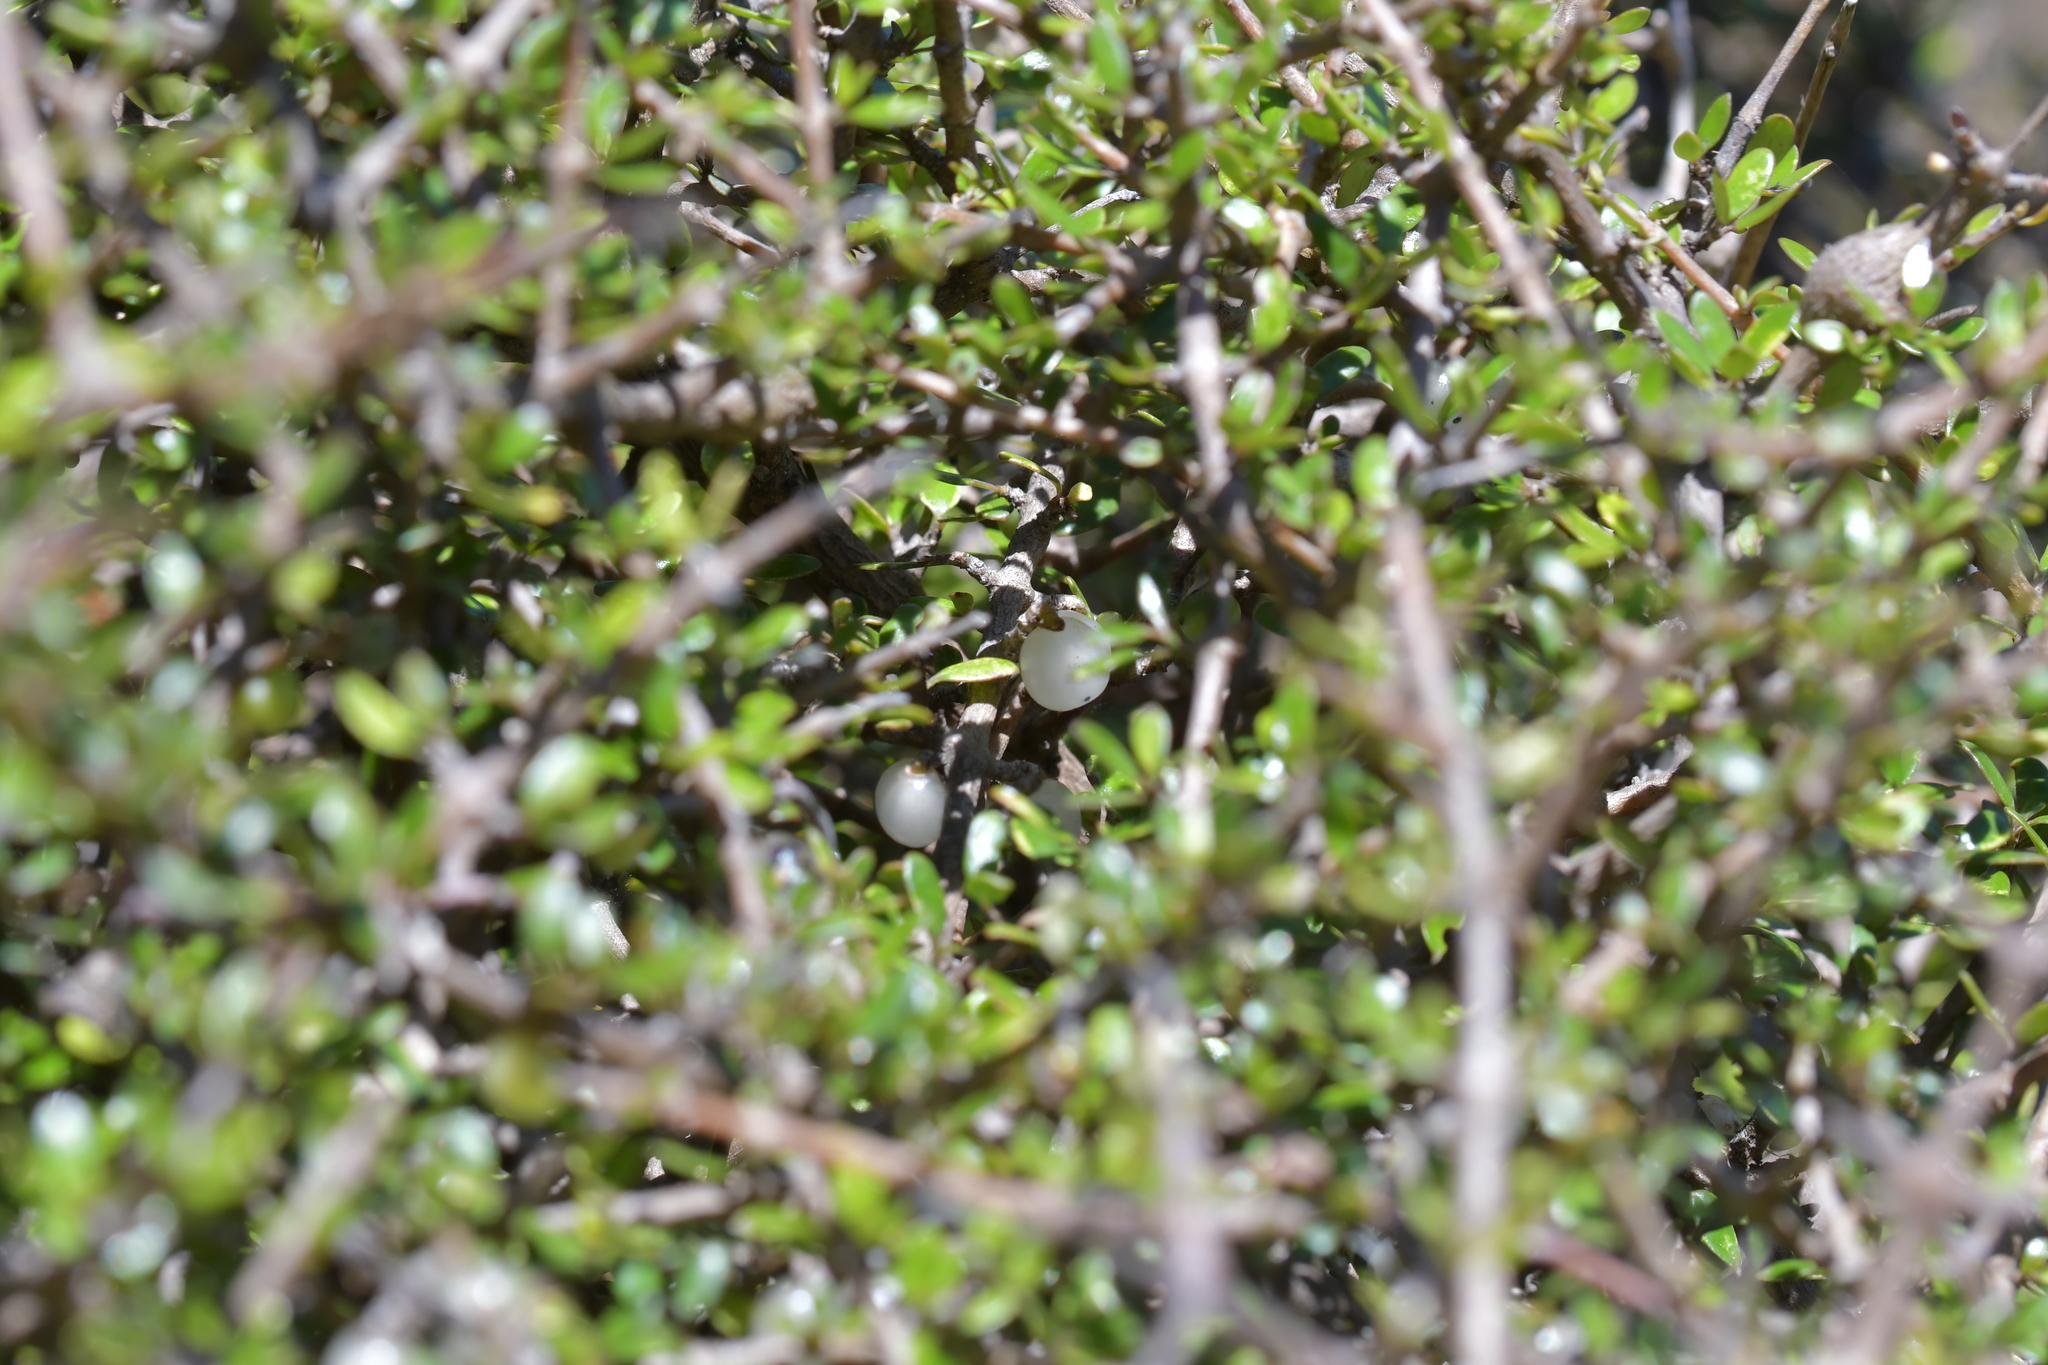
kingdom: Plantae
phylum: Tracheophyta
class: Magnoliopsida
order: Gentianales
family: Rubiaceae
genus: Coprosma
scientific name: Coprosma propinqua
